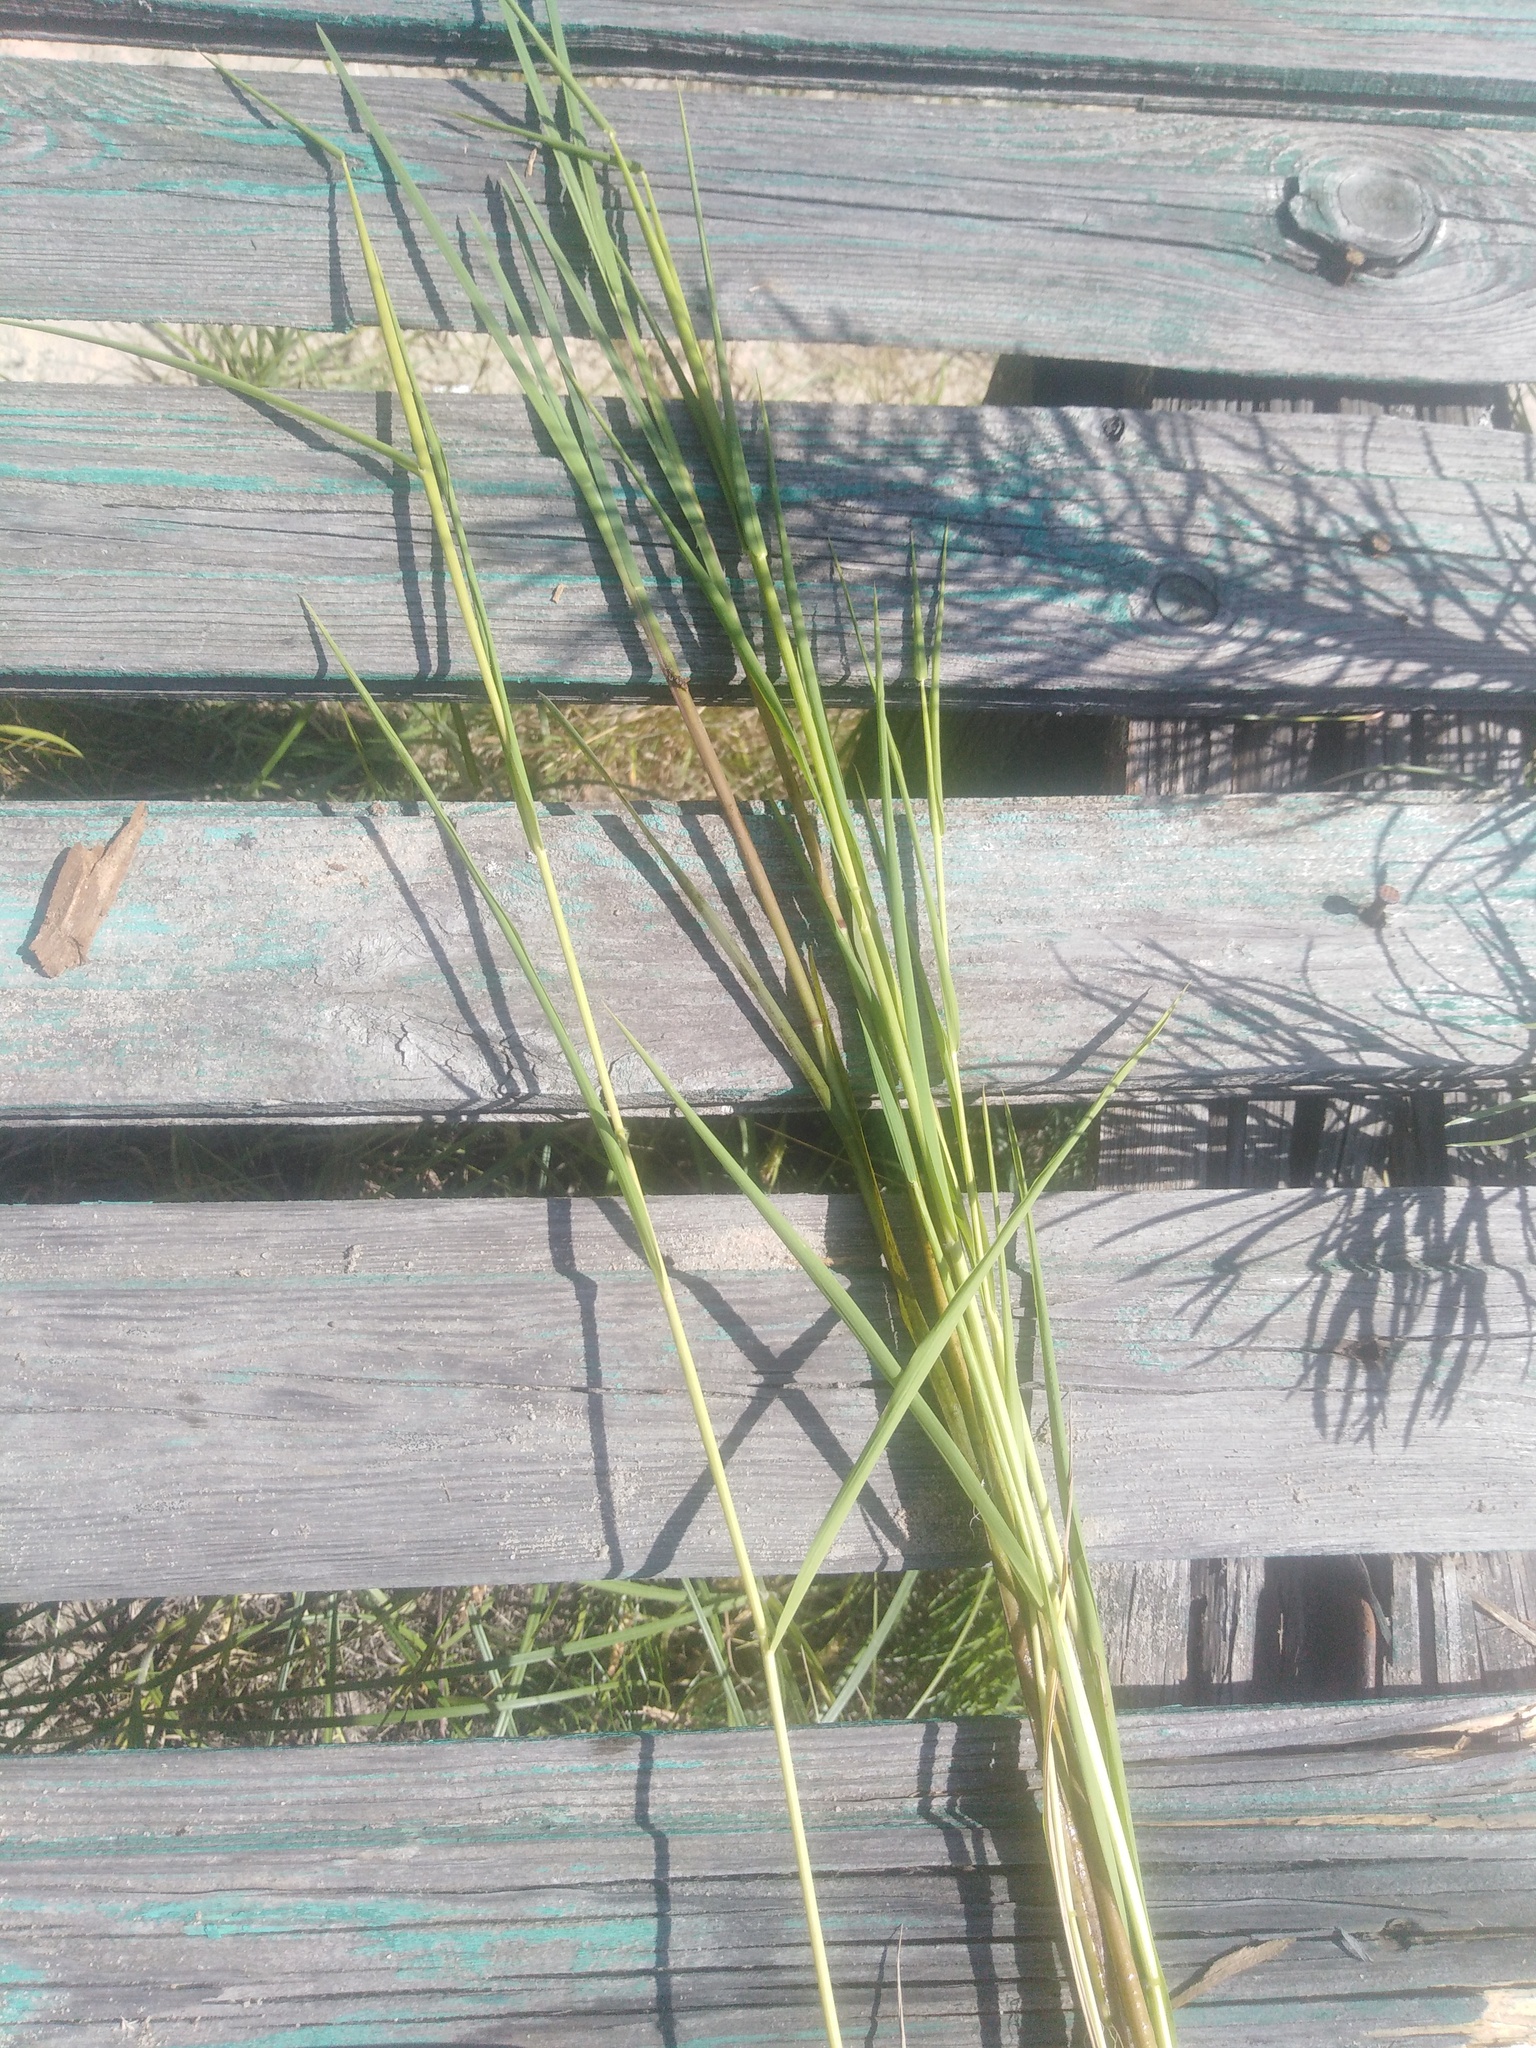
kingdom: Plantae
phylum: Tracheophyta
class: Liliopsida
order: Poales
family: Poaceae
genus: Leersia
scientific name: Leersia oryzoides
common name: Cut-grass
